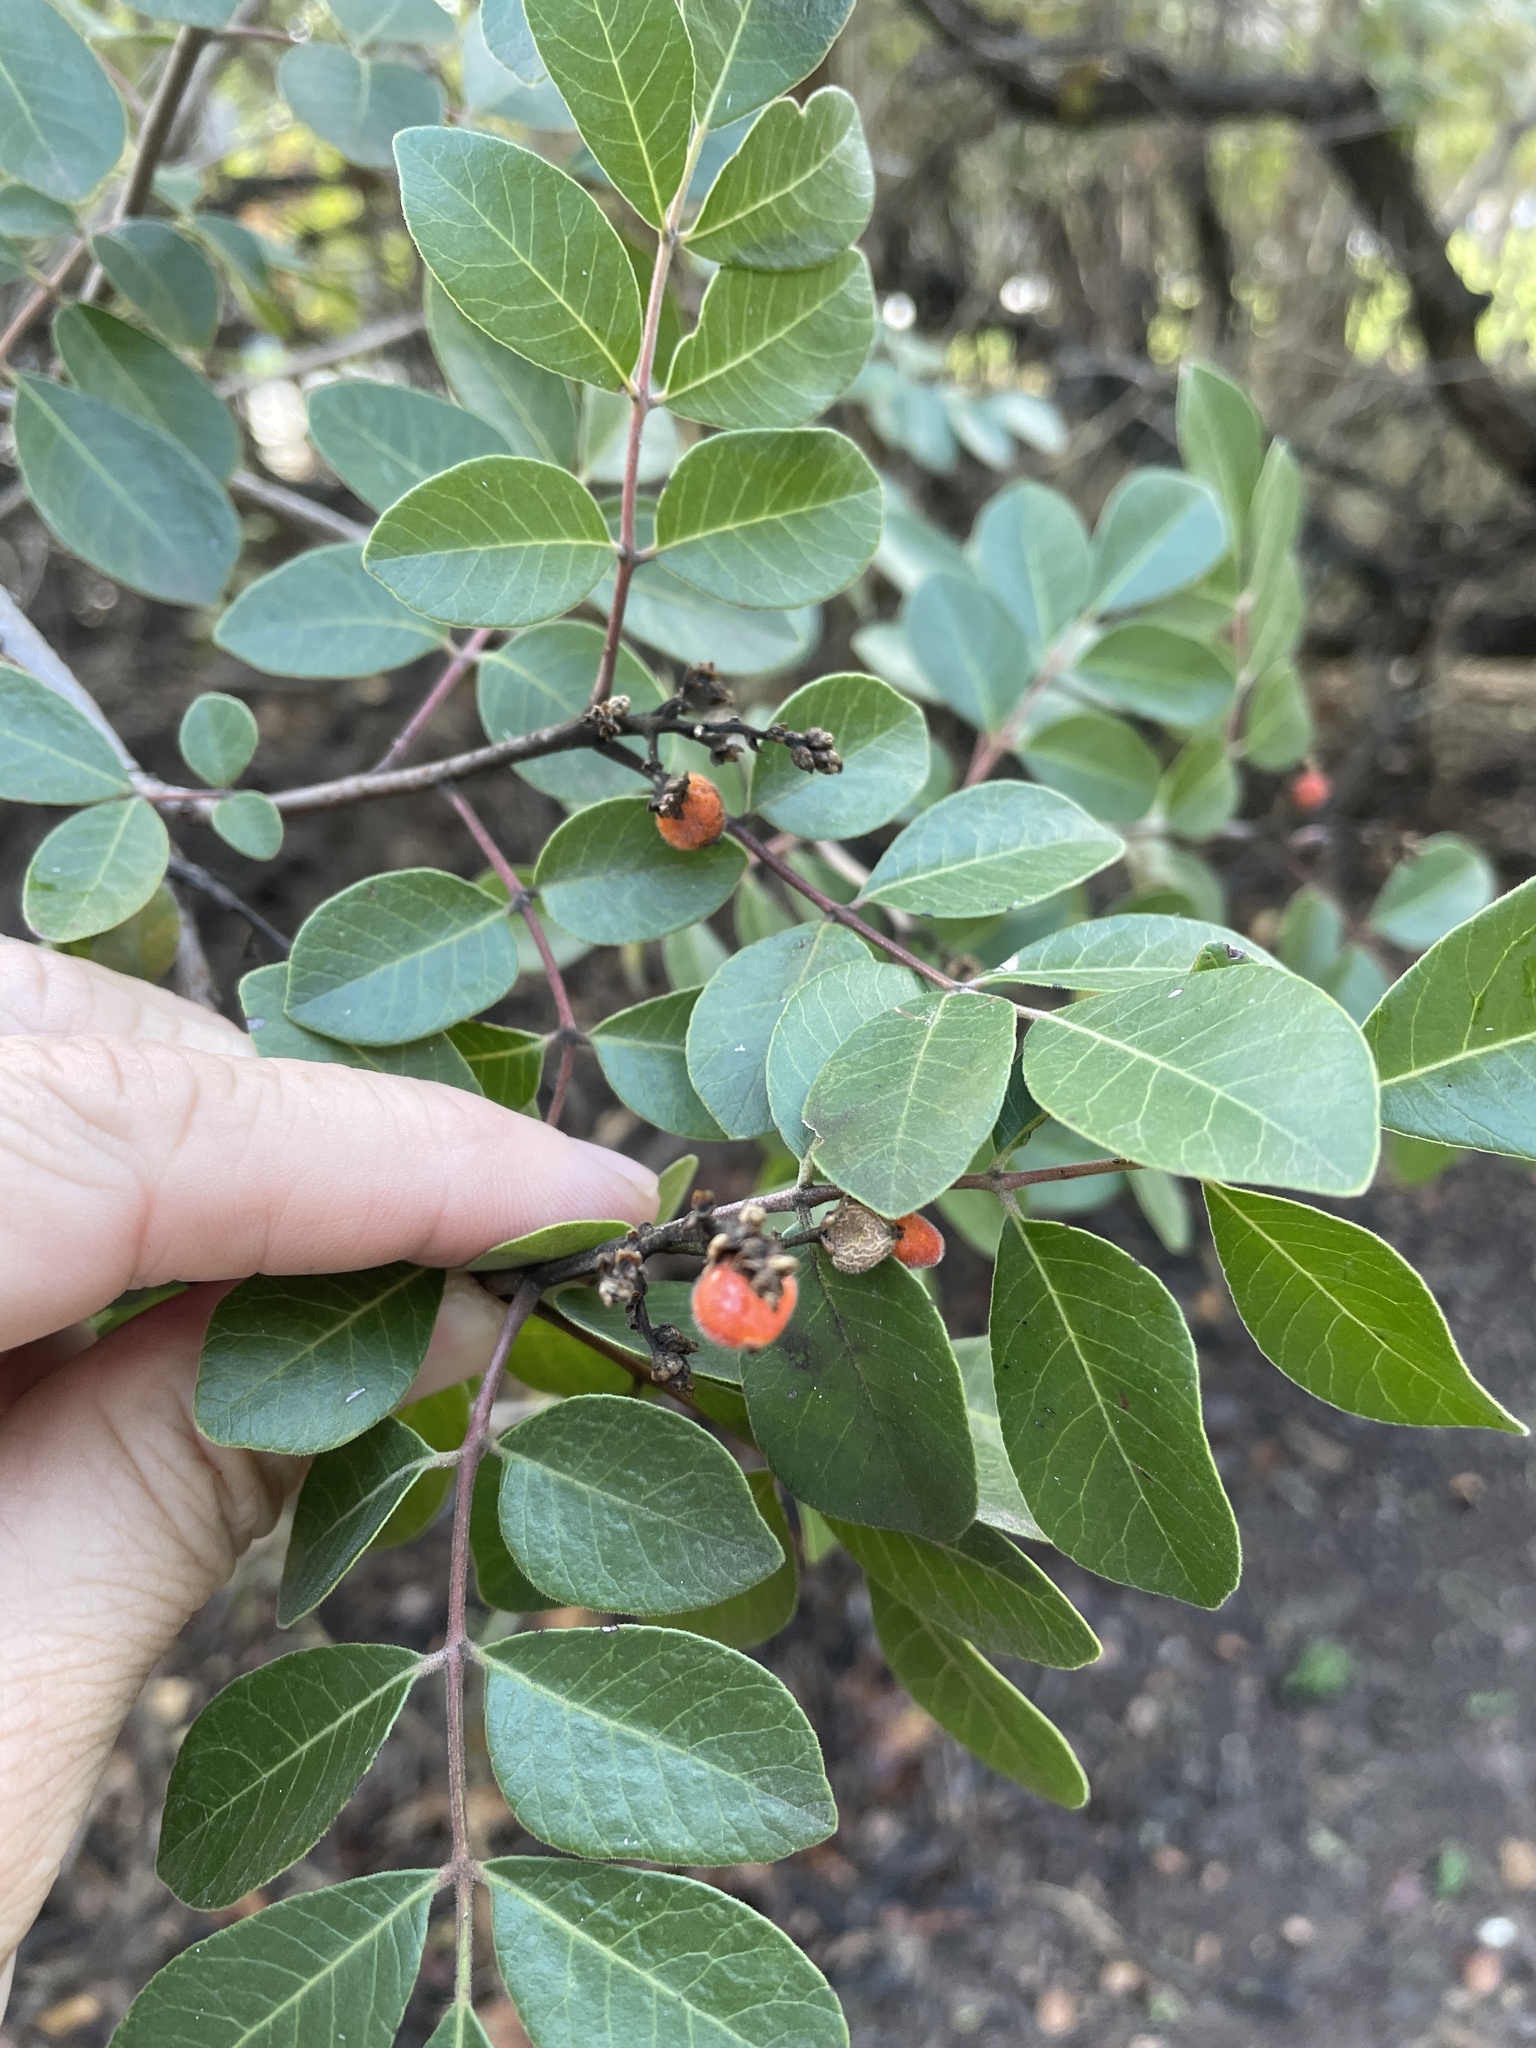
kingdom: Plantae
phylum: Tracheophyta
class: Magnoliopsida
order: Sapindales
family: Anacardiaceae
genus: Rhus
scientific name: Rhus virens
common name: Evergreen sumac
